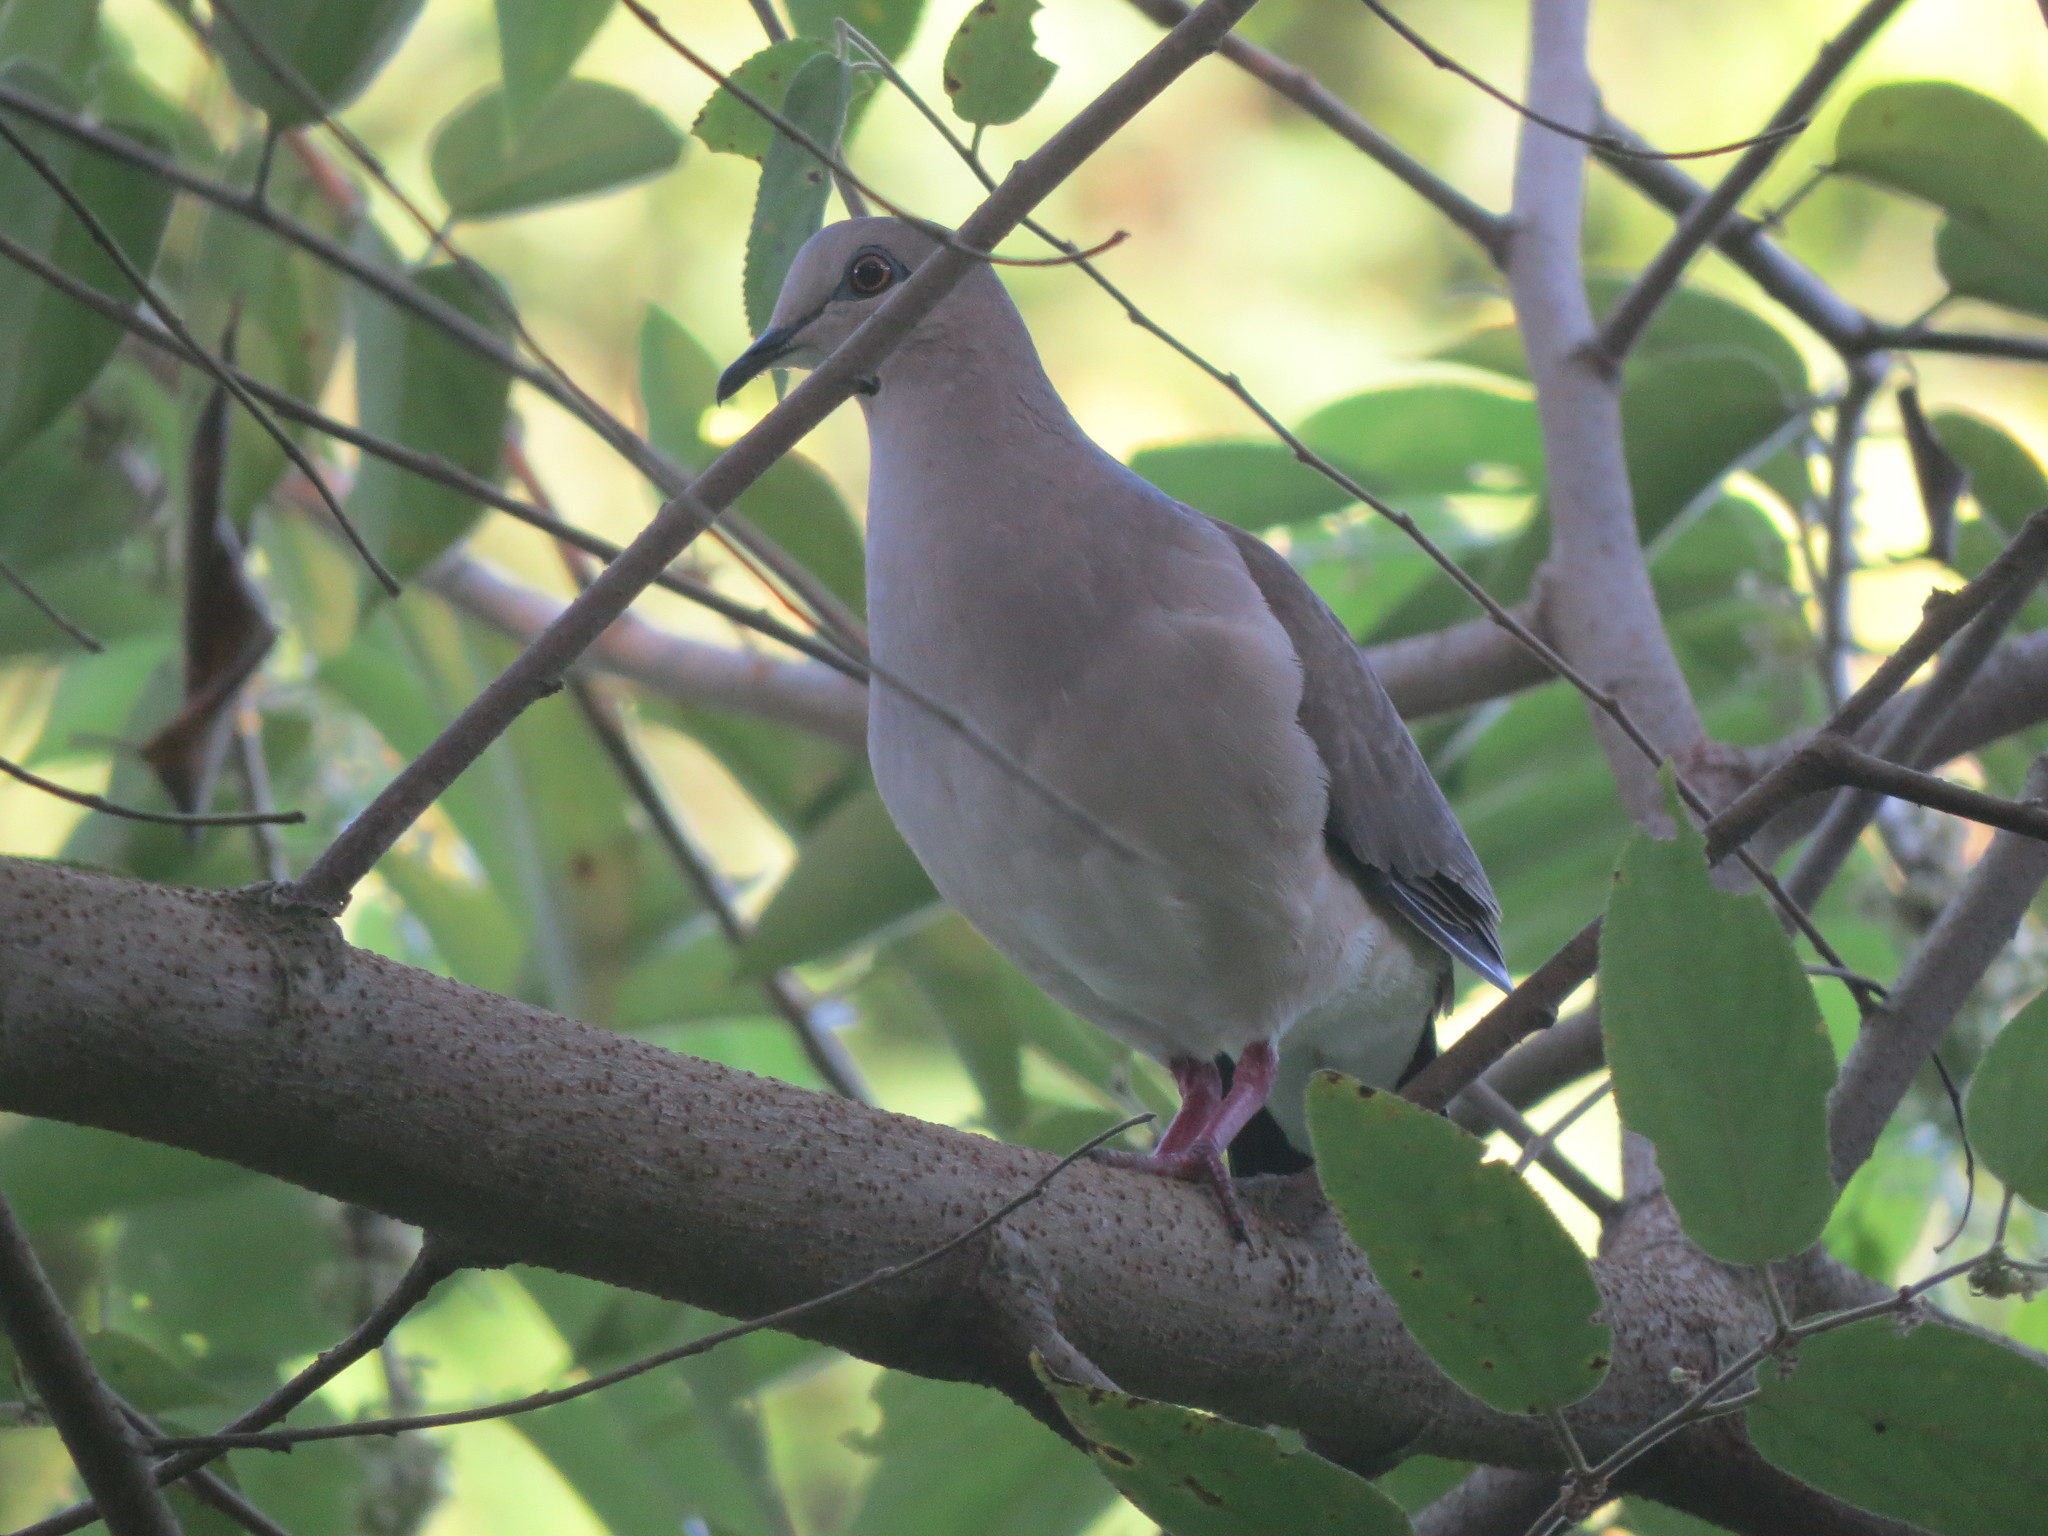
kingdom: Animalia
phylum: Chordata
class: Aves
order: Columbiformes
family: Columbidae
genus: Leptotila
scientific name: Leptotila verreauxi
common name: White-tipped dove
